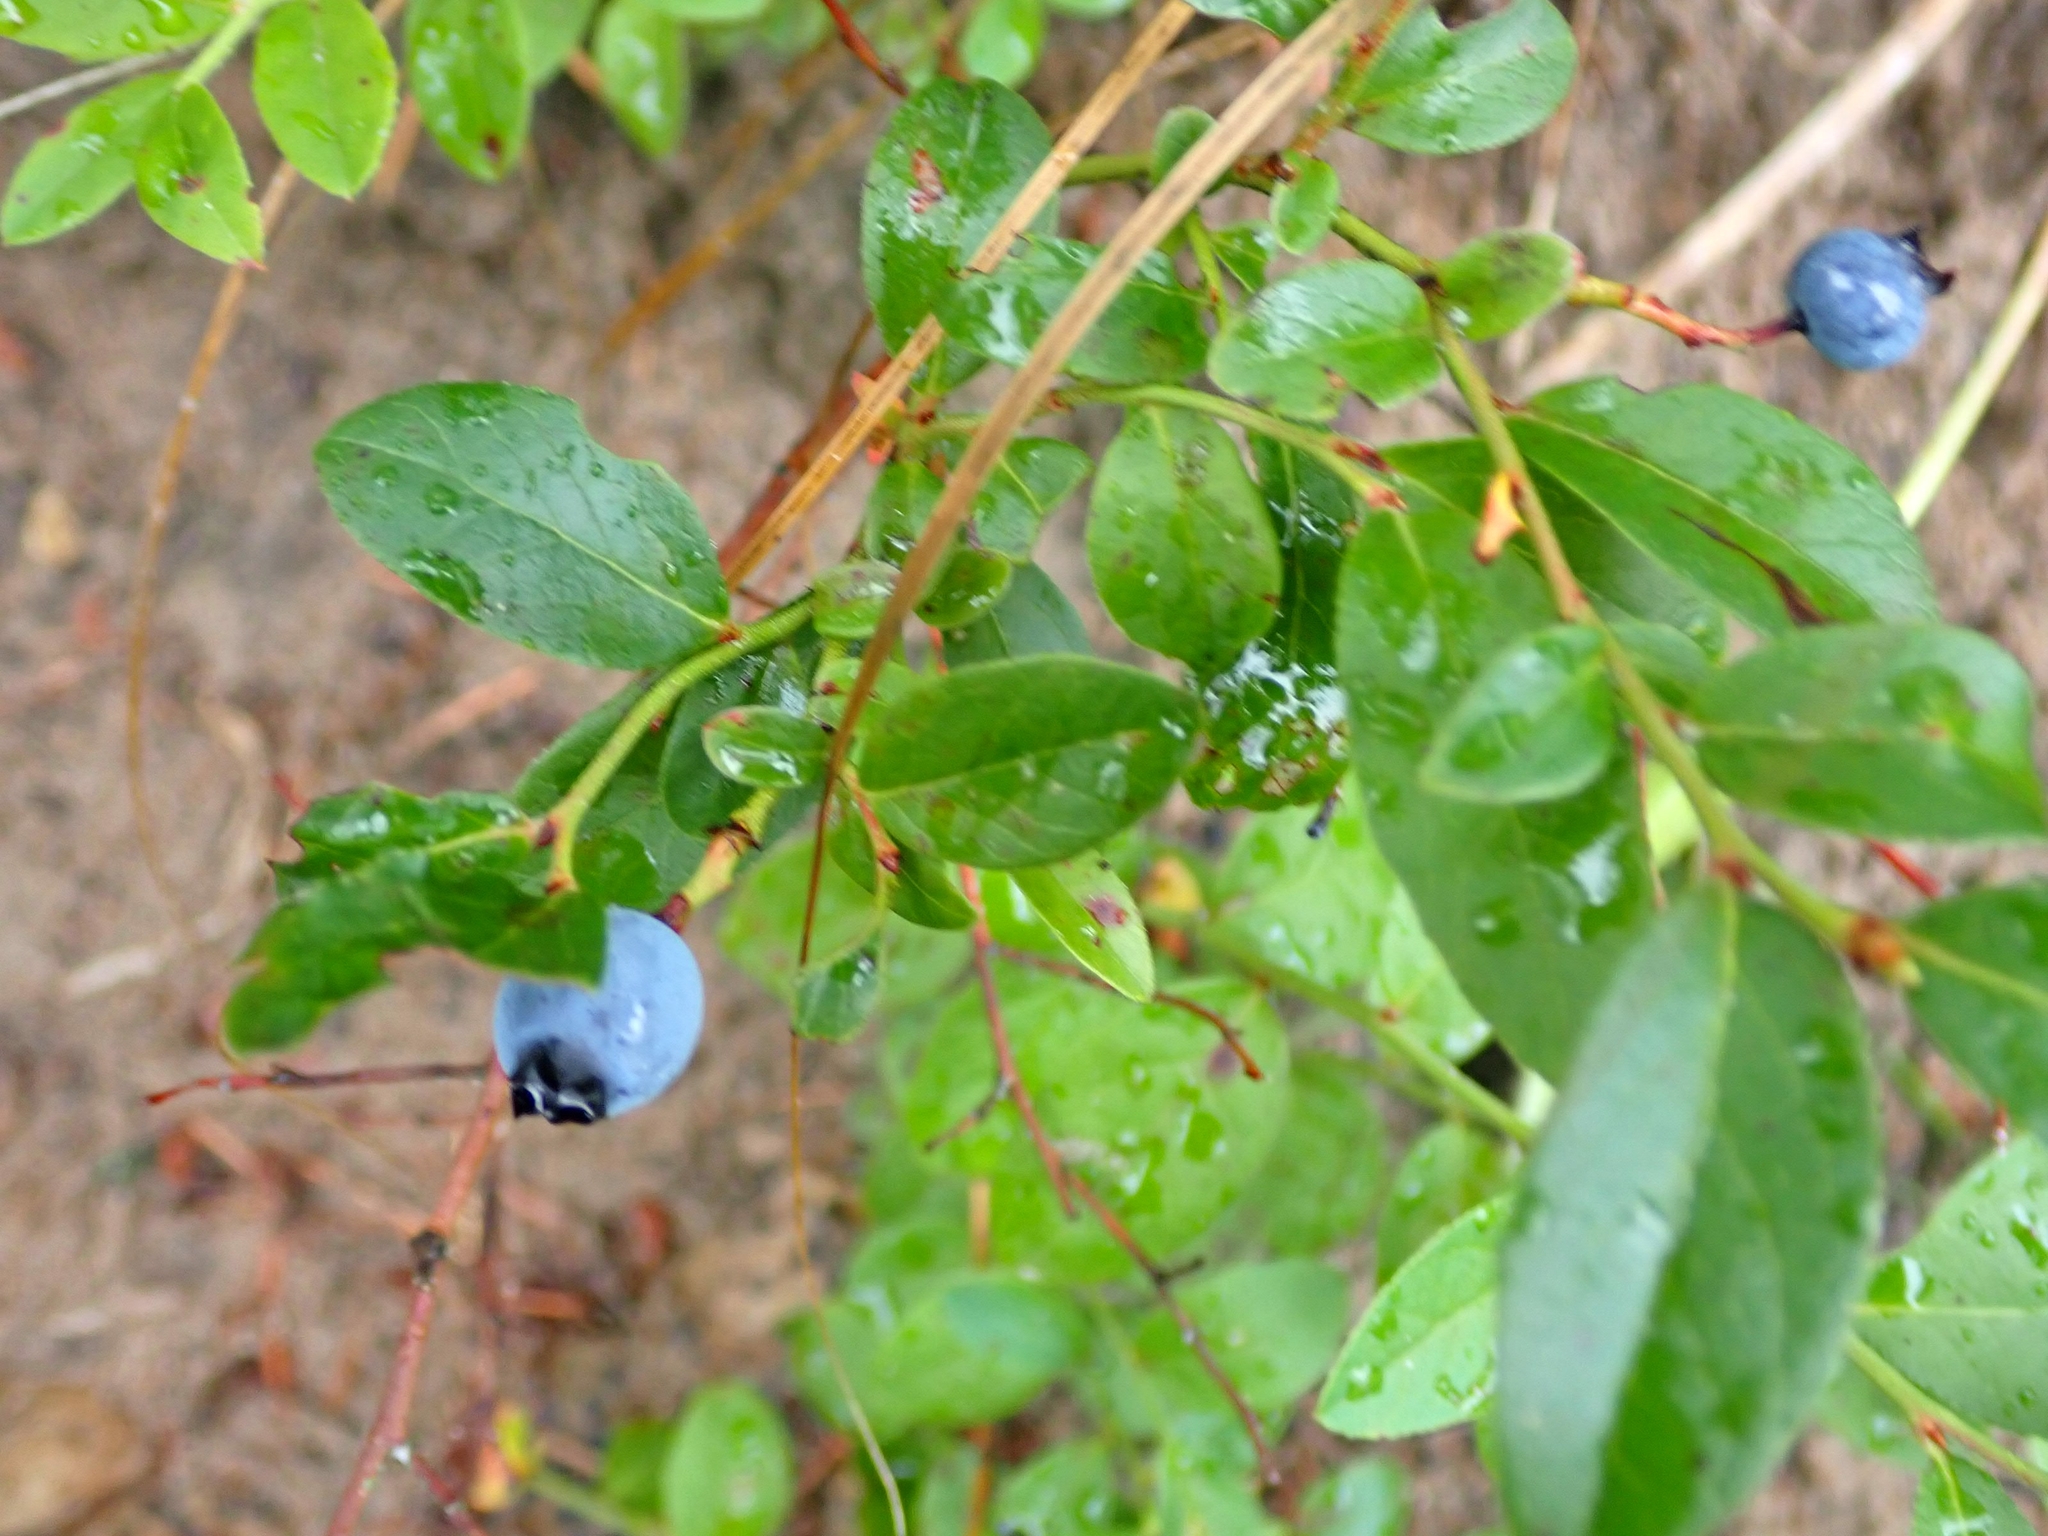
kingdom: Plantae
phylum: Tracheophyta
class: Magnoliopsida
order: Ericales
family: Ericaceae
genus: Vaccinium
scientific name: Vaccinium angustifolium
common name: Early lowbush blueberry
